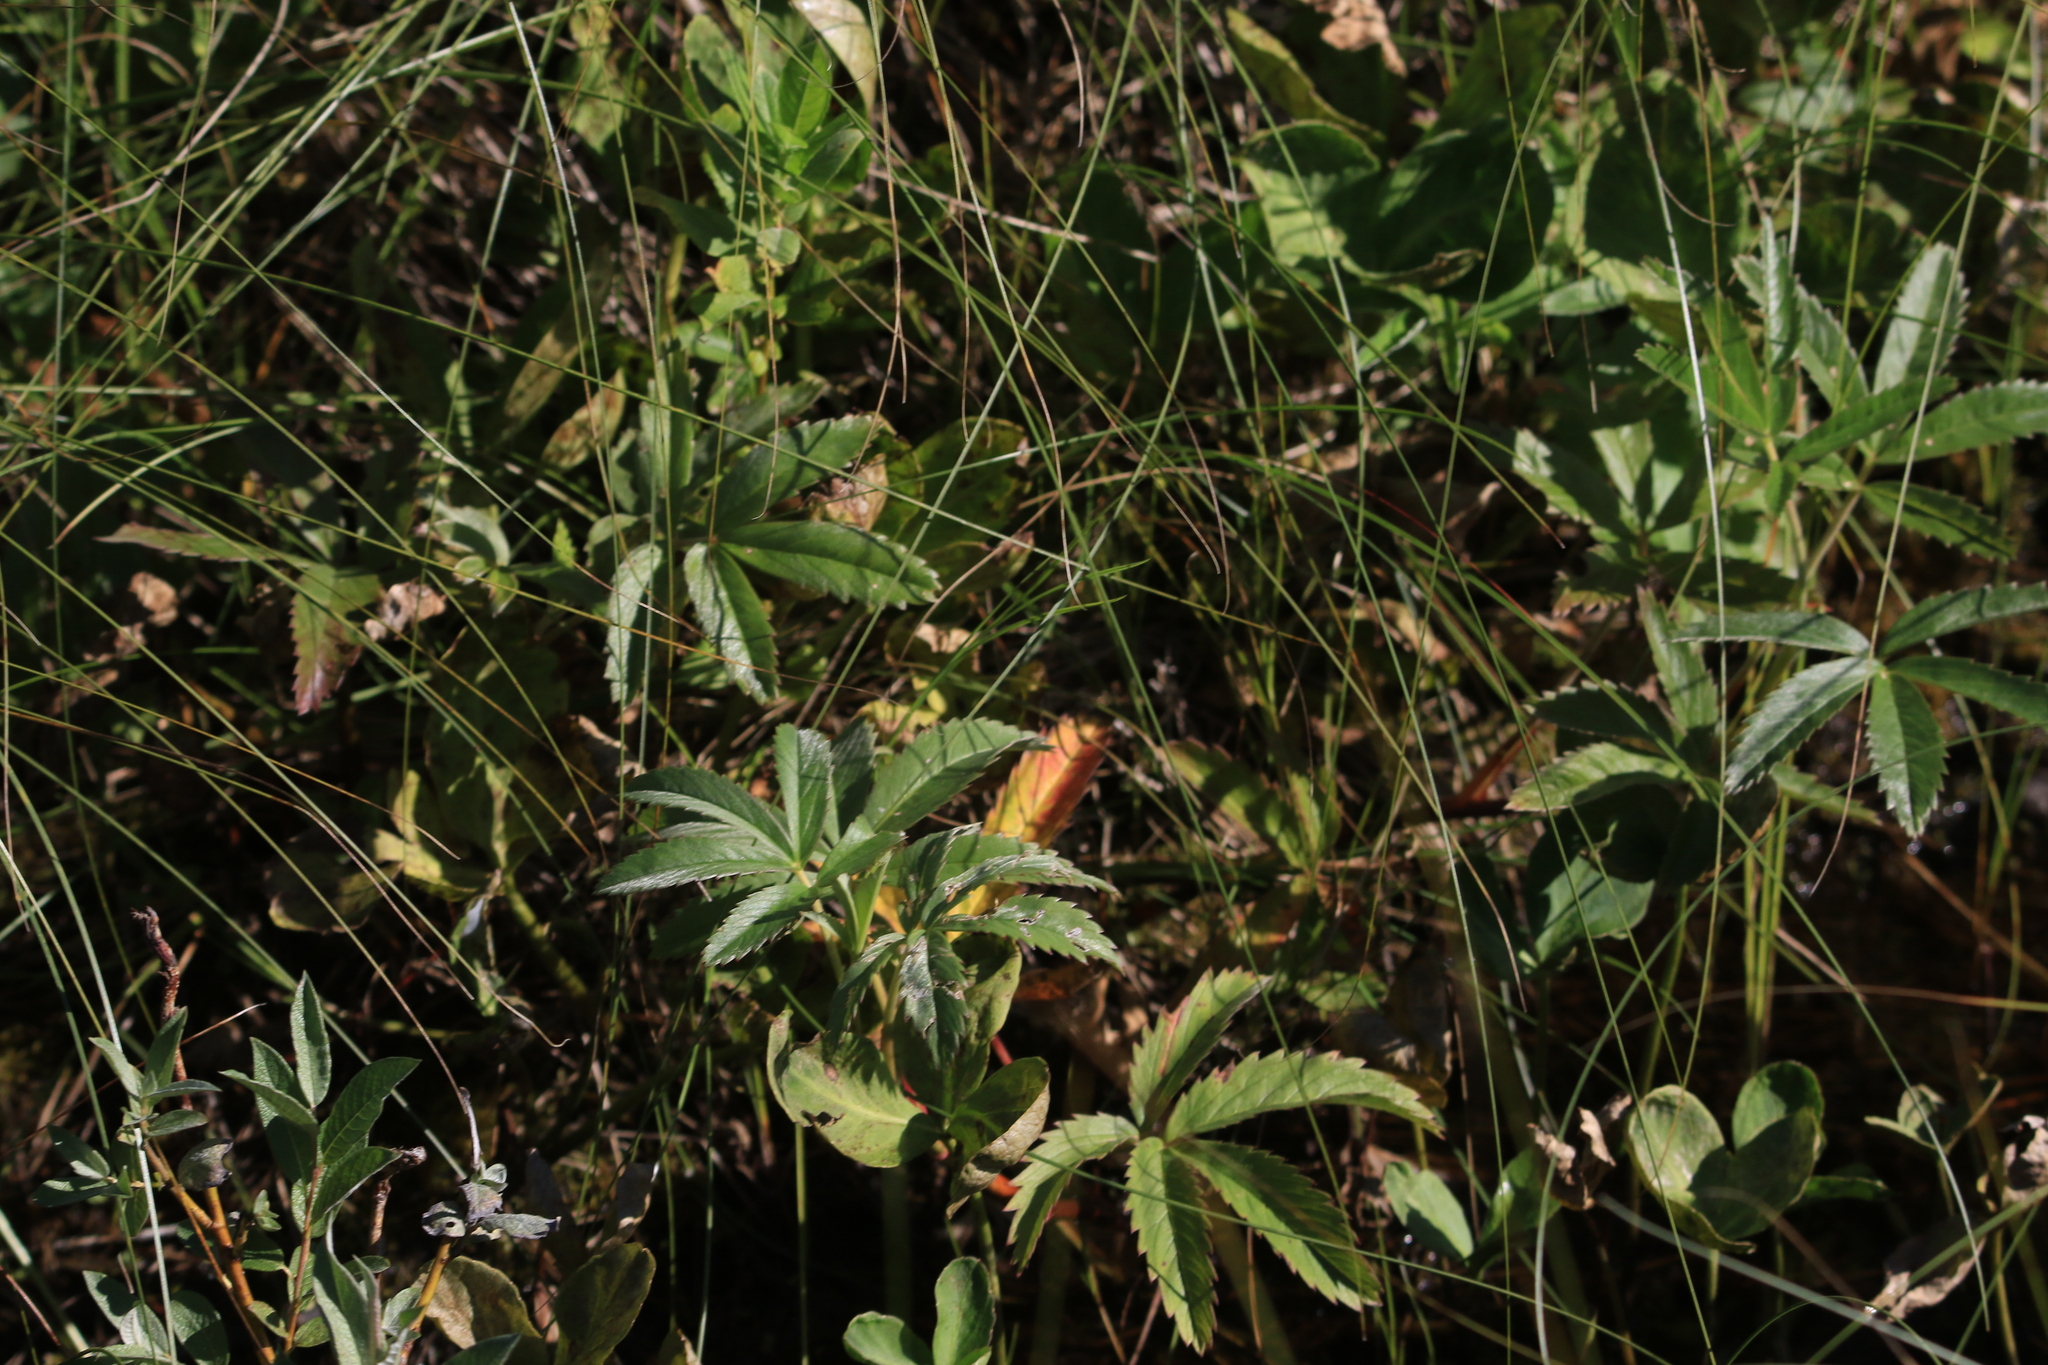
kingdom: Plantae
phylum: Tracheophyta
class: Magnoliopsida
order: Rosales
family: Rosaceae
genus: Comarum
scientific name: Comarum palustre
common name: Marsh cinquefoil
